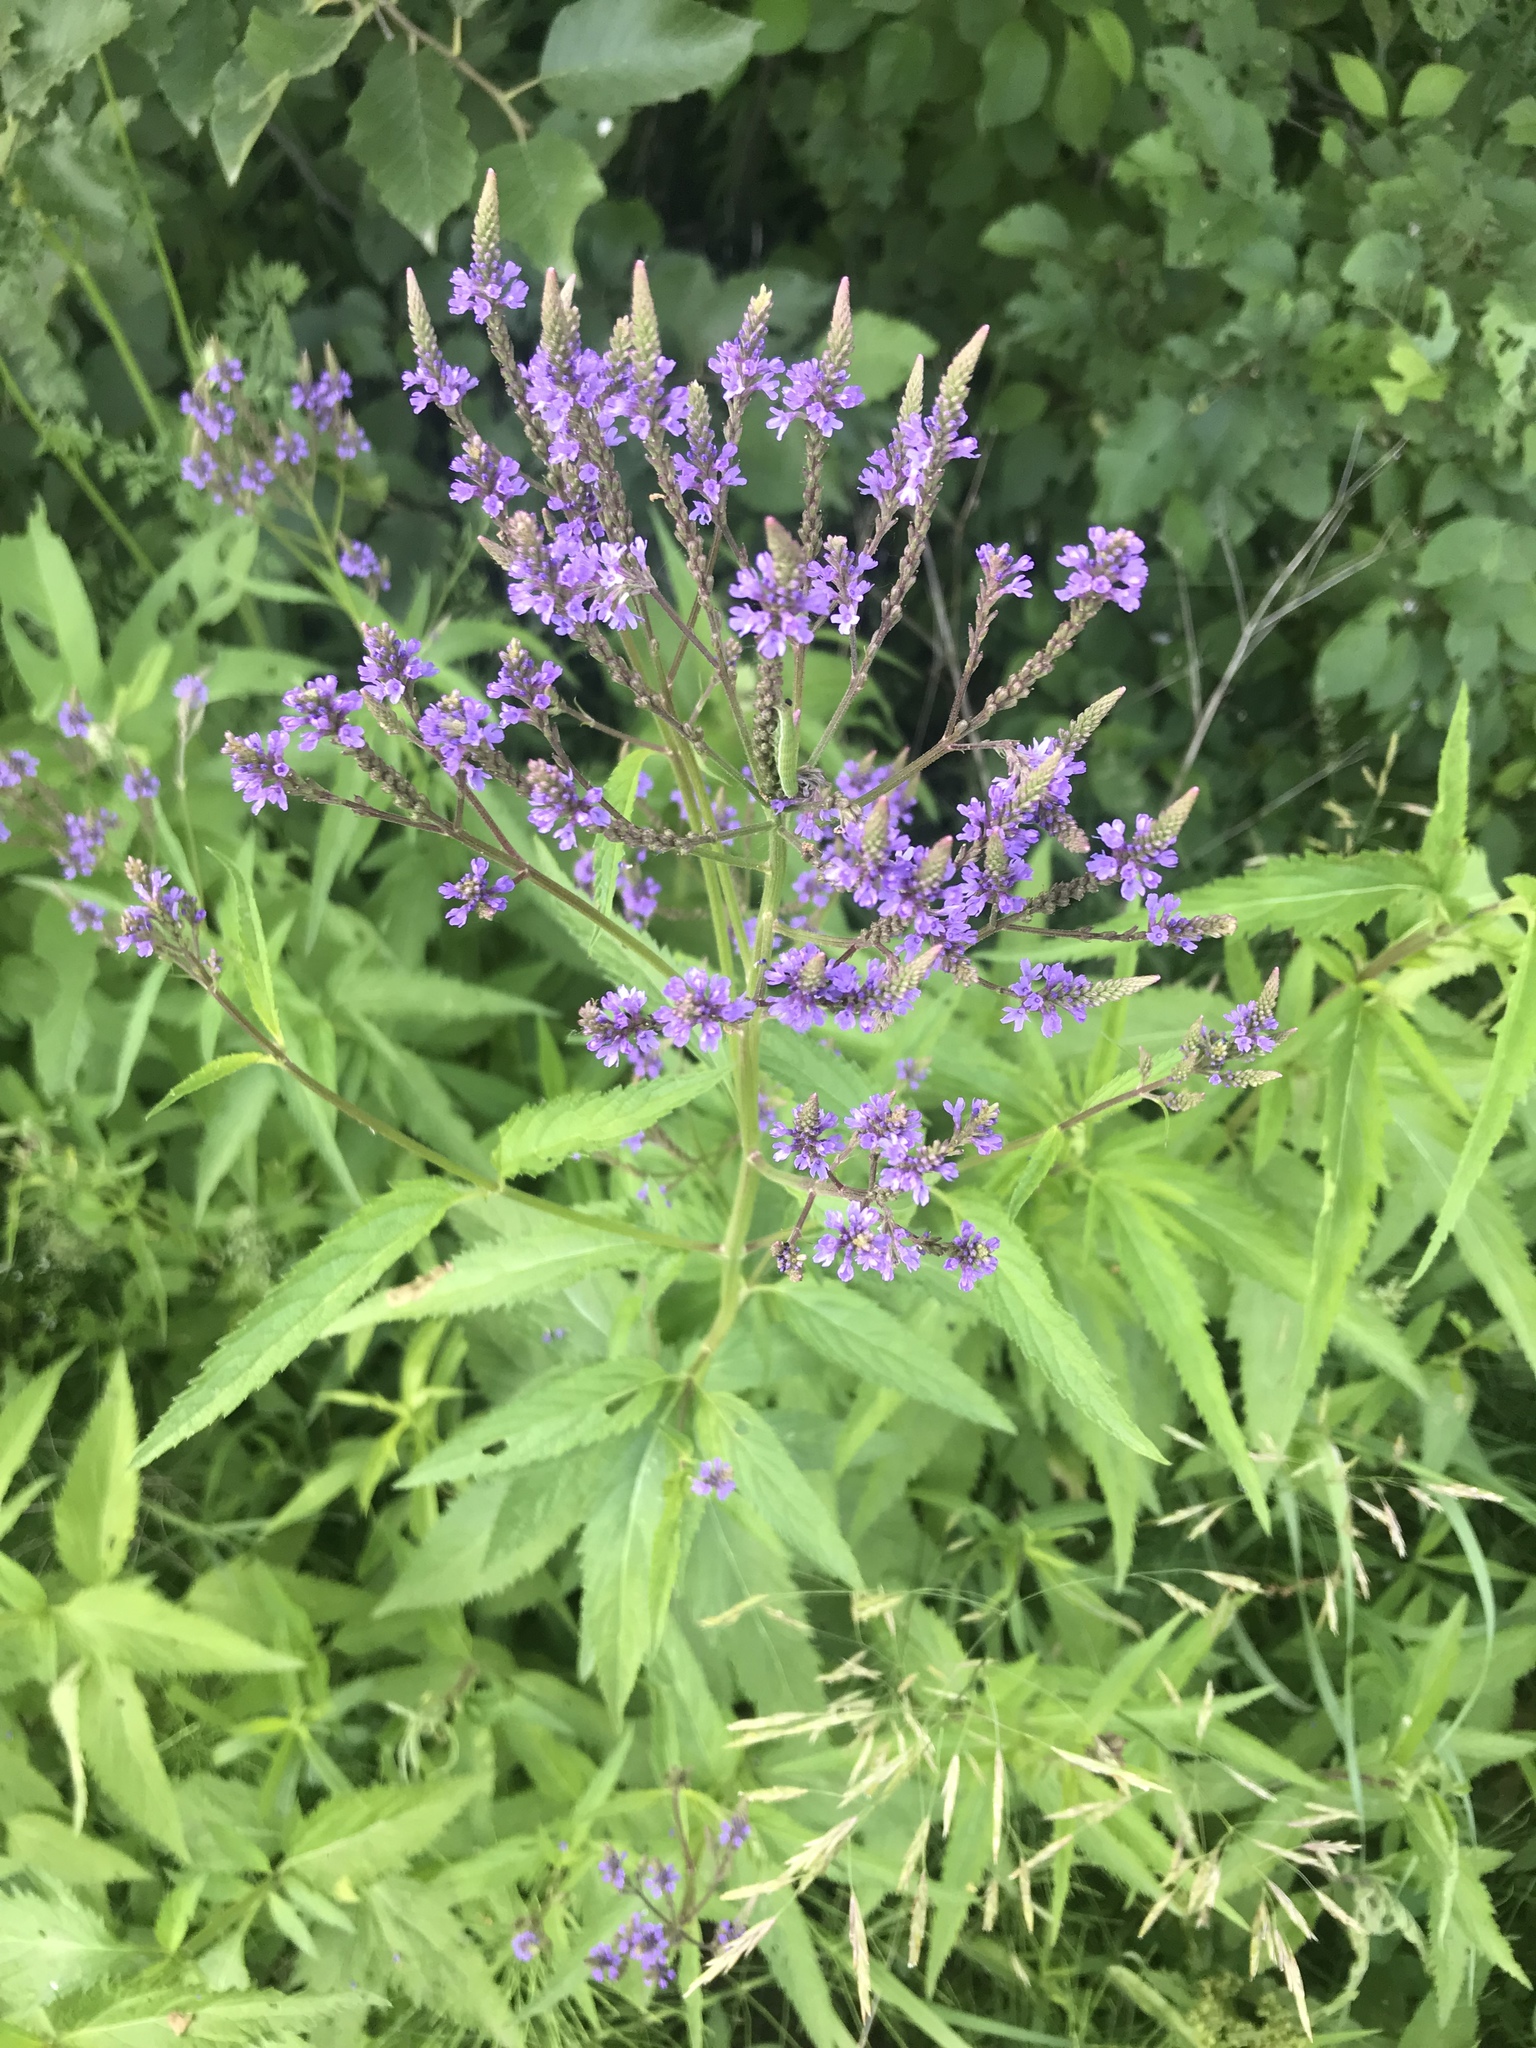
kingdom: Plantae
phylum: Tracheophyta
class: Magnoliopsida
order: Lamiales
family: Verbenaceae
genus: Verbena
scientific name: Verbena hastata
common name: American blue vervain
